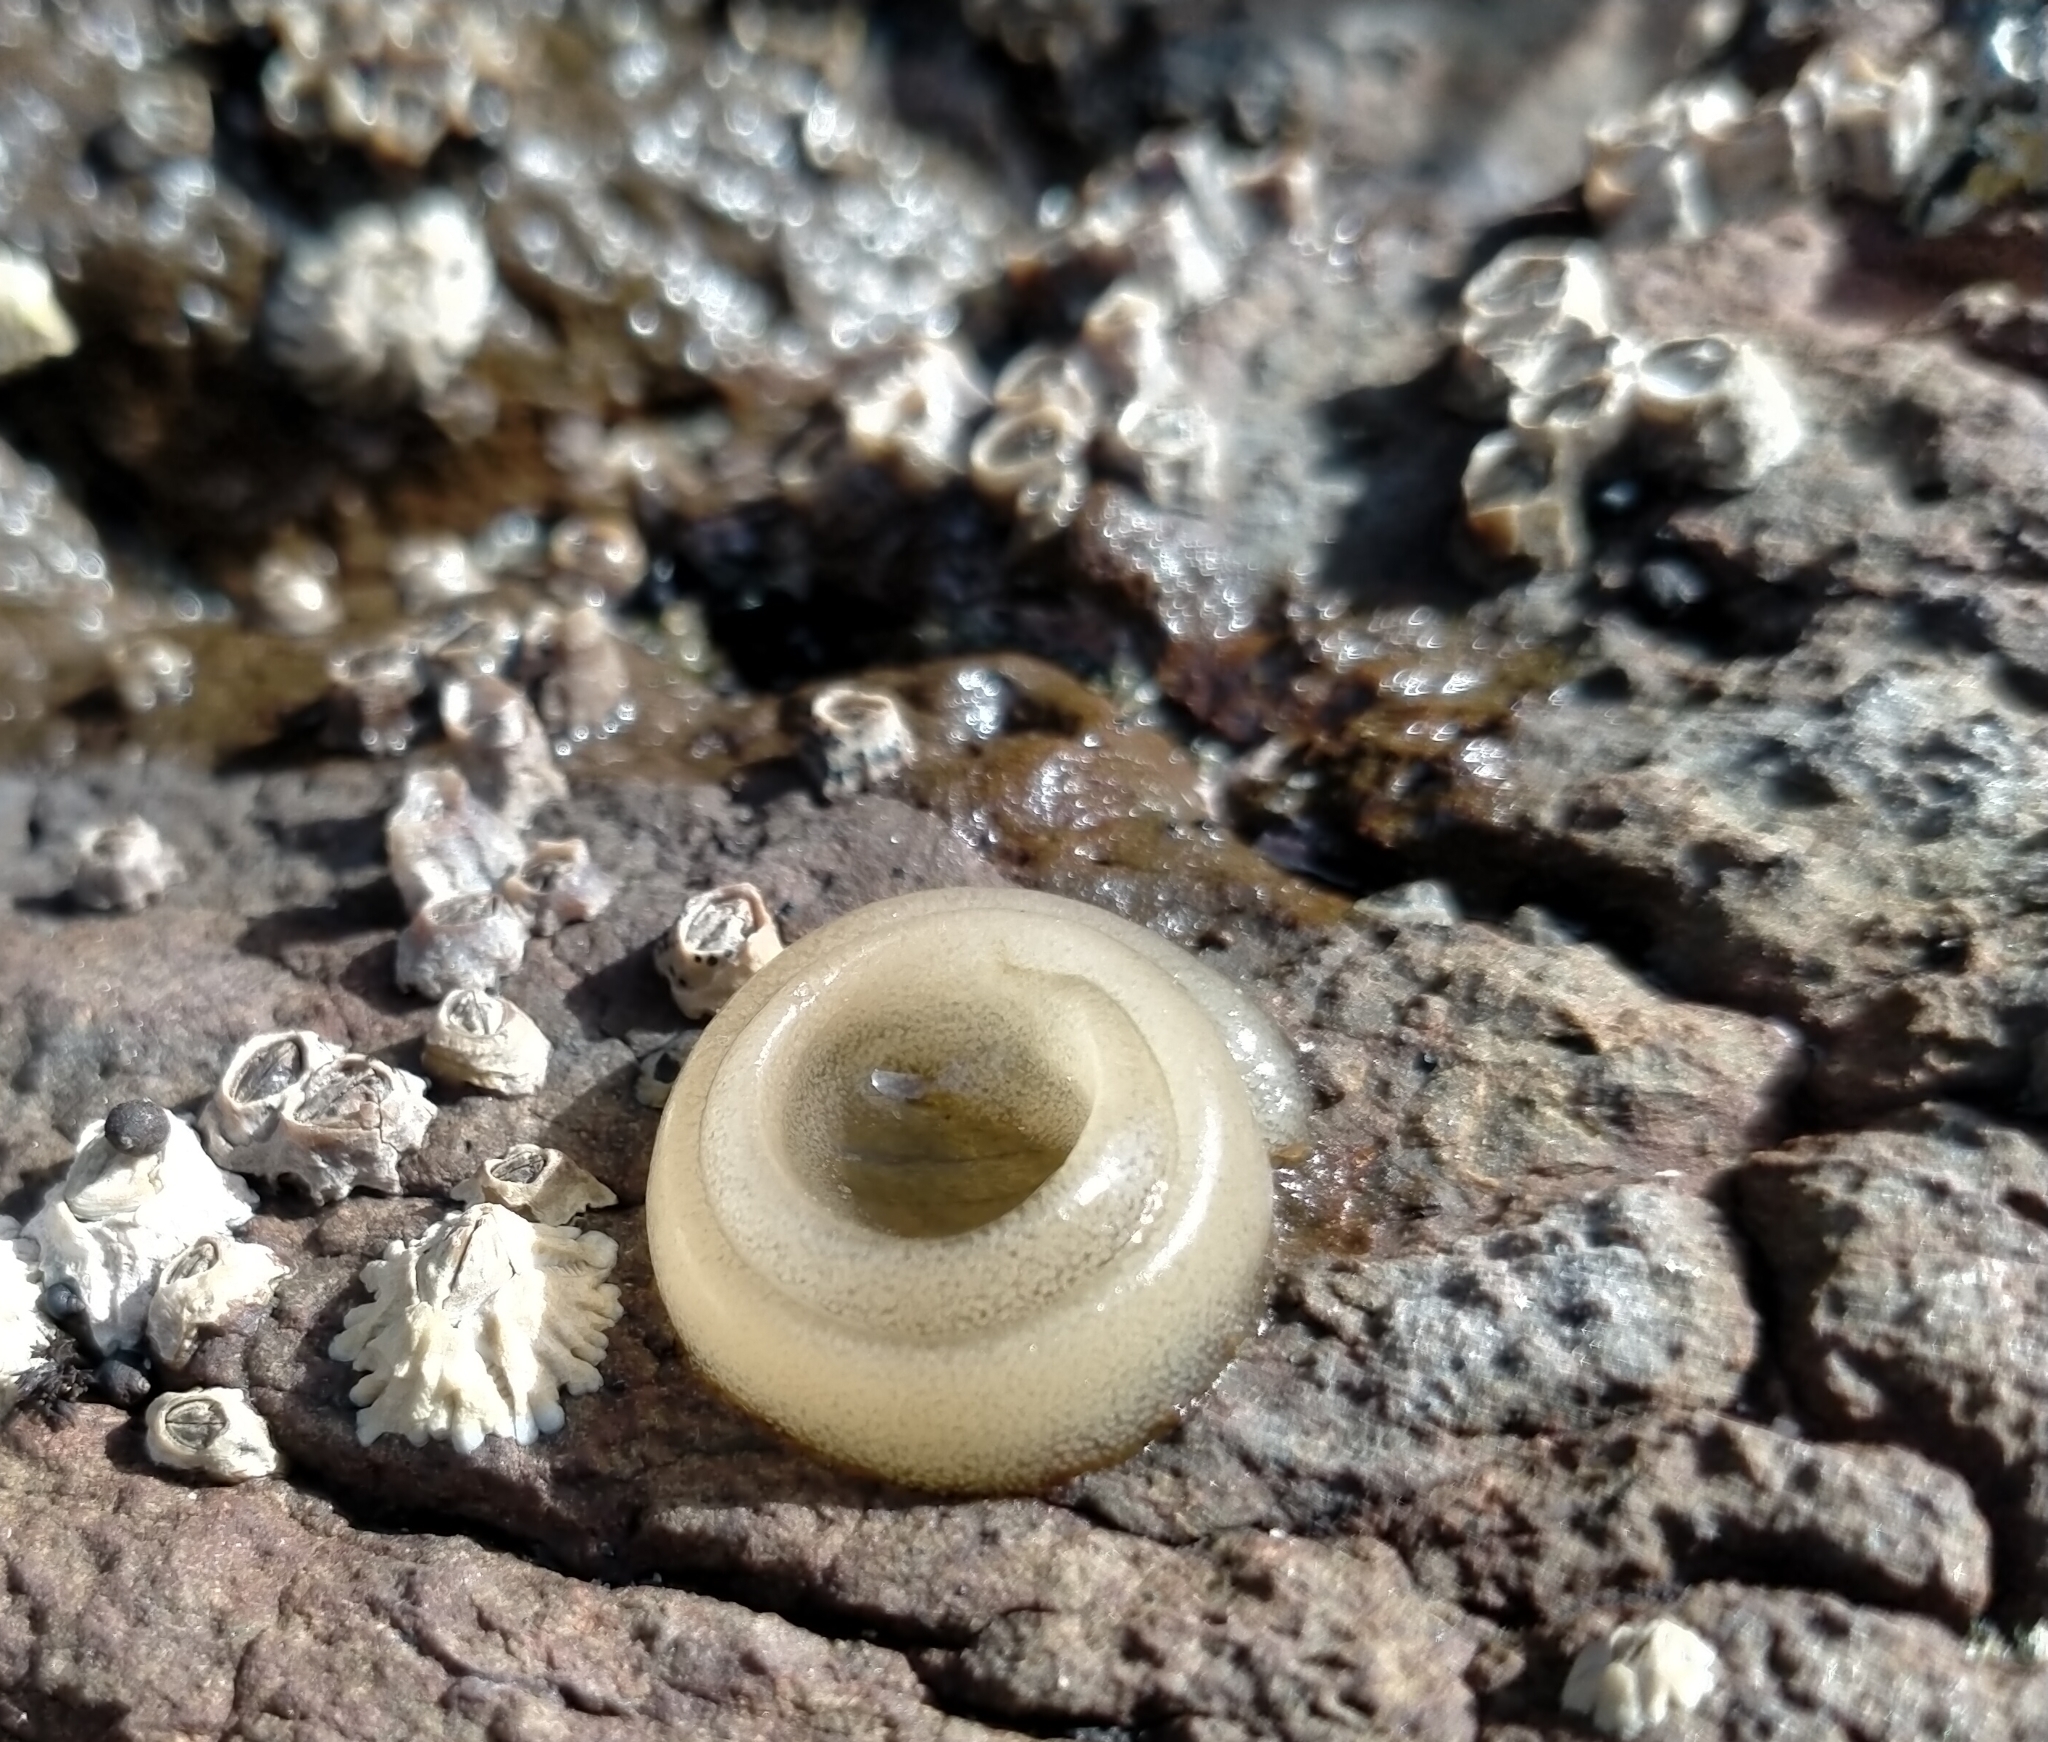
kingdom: Animalia
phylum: Mollusca
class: Gastropoda
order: Siphonariida
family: Siphonariidae
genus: Benhamina
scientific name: Benhamina obliquata
